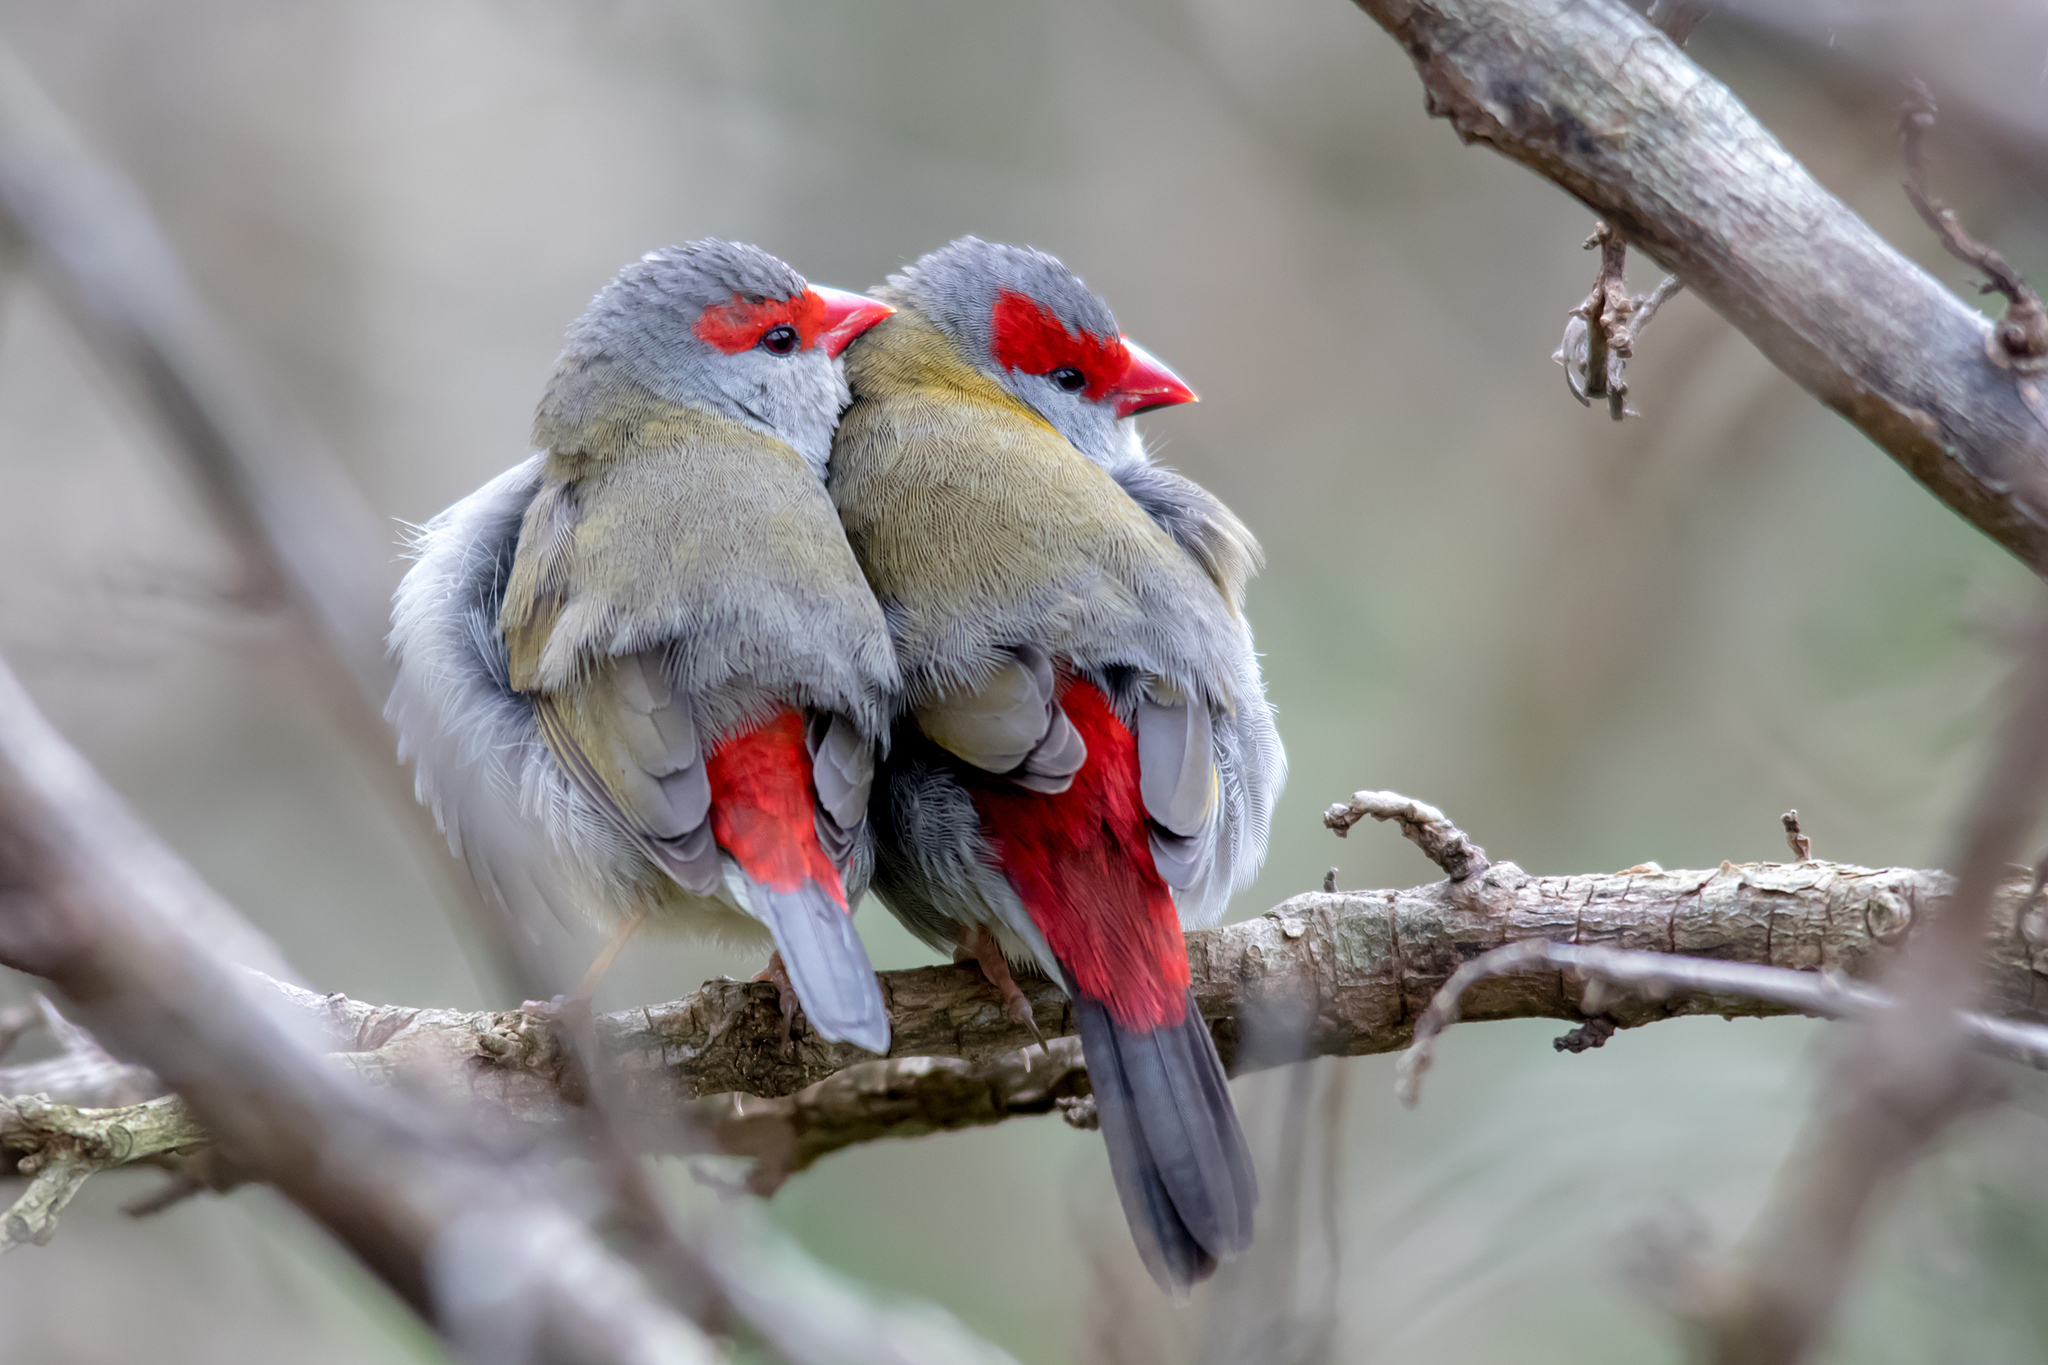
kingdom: Animalia
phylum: Chordata
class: Aves
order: Passeriformes
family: Estrildidae
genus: Neochmia
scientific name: Neochmia temporalis
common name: Red-browed finch
